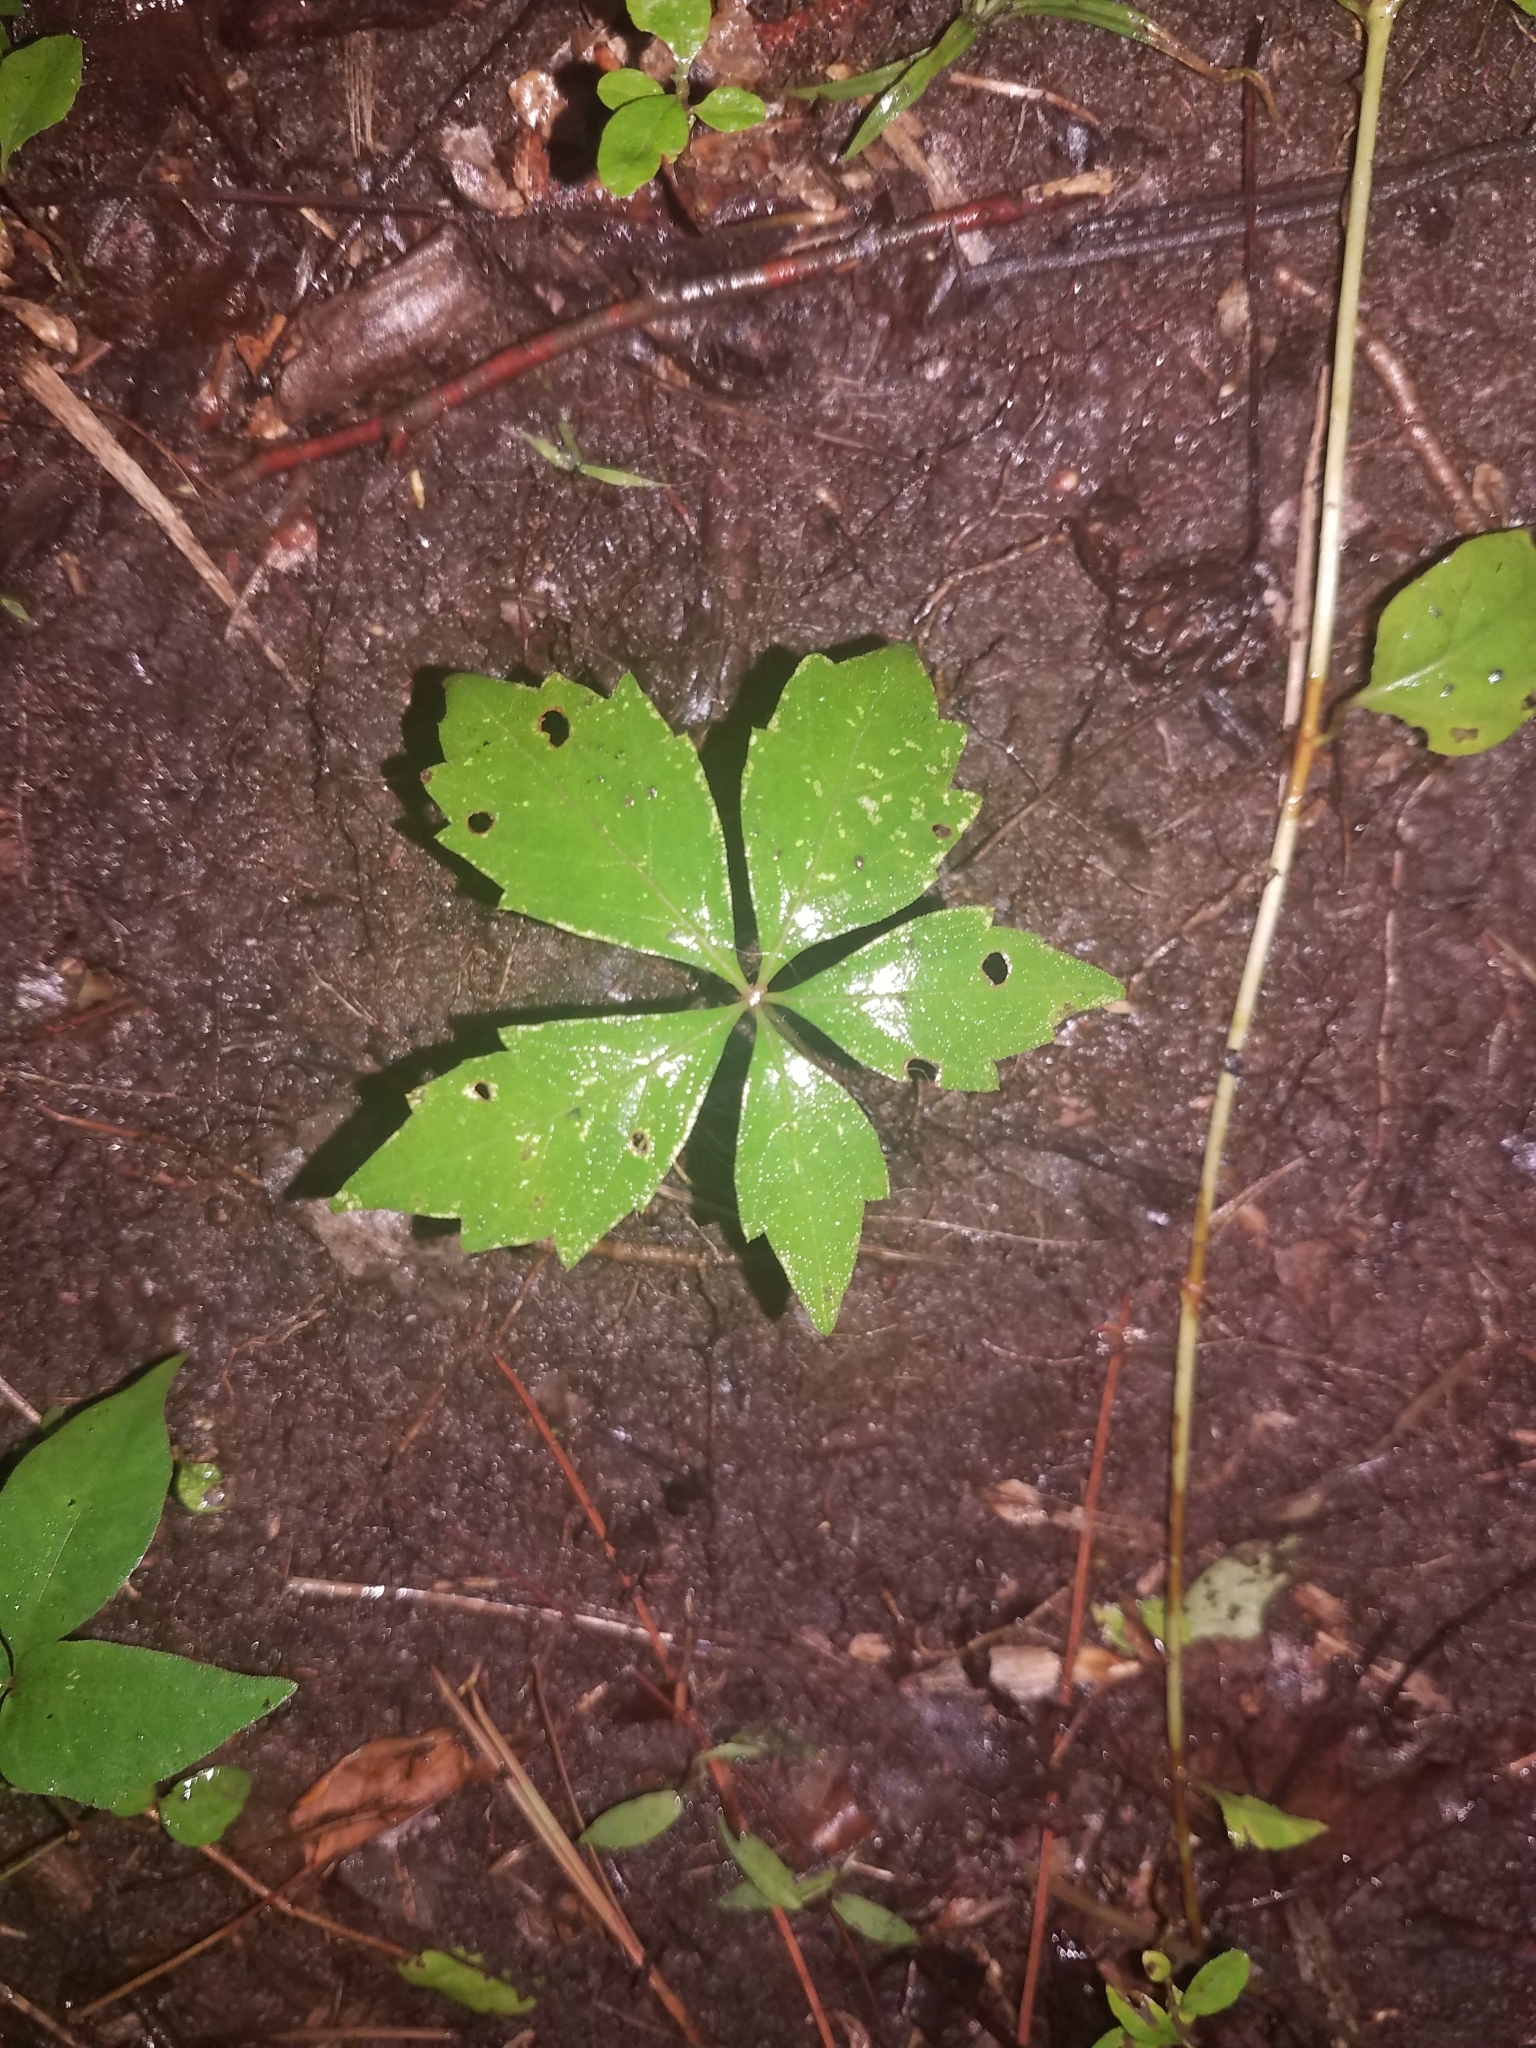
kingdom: Plantae
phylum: Tracheophyta
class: Magnoliopsida
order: Vitales
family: Vitaceae
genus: Parthenocissus
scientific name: Parthenocissus quinquefolia
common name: Virginia-creeper
